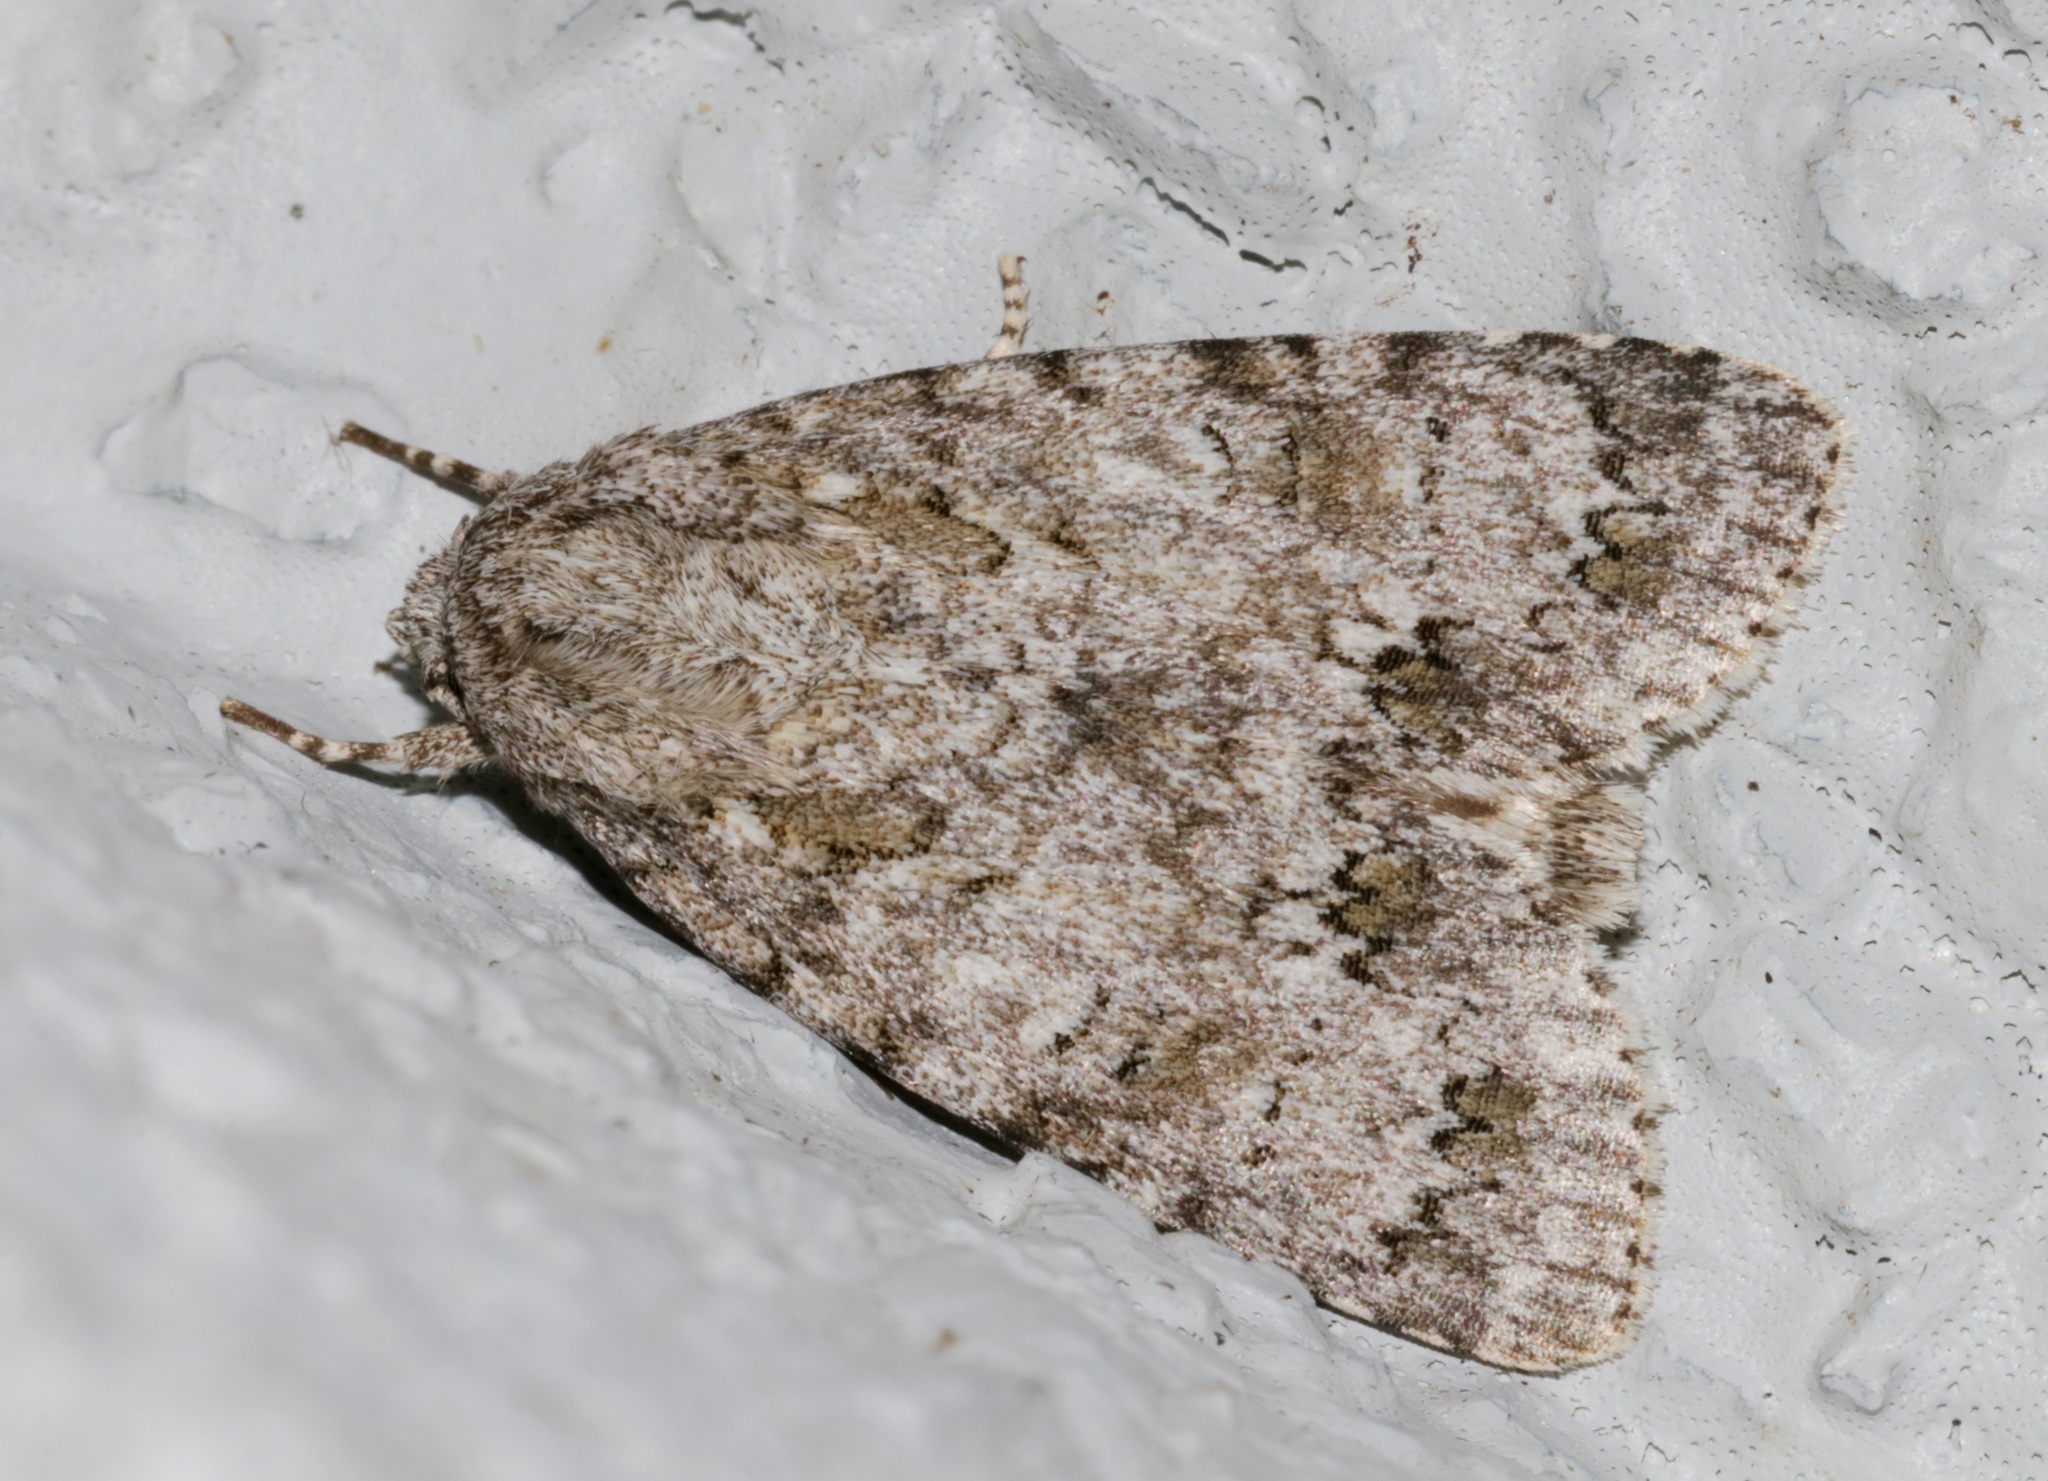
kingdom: Animalia
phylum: Arthropoda
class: Insecta
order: Lepidoptera
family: Noctuidae
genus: Acronicta
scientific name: Acronicta pruinosa
